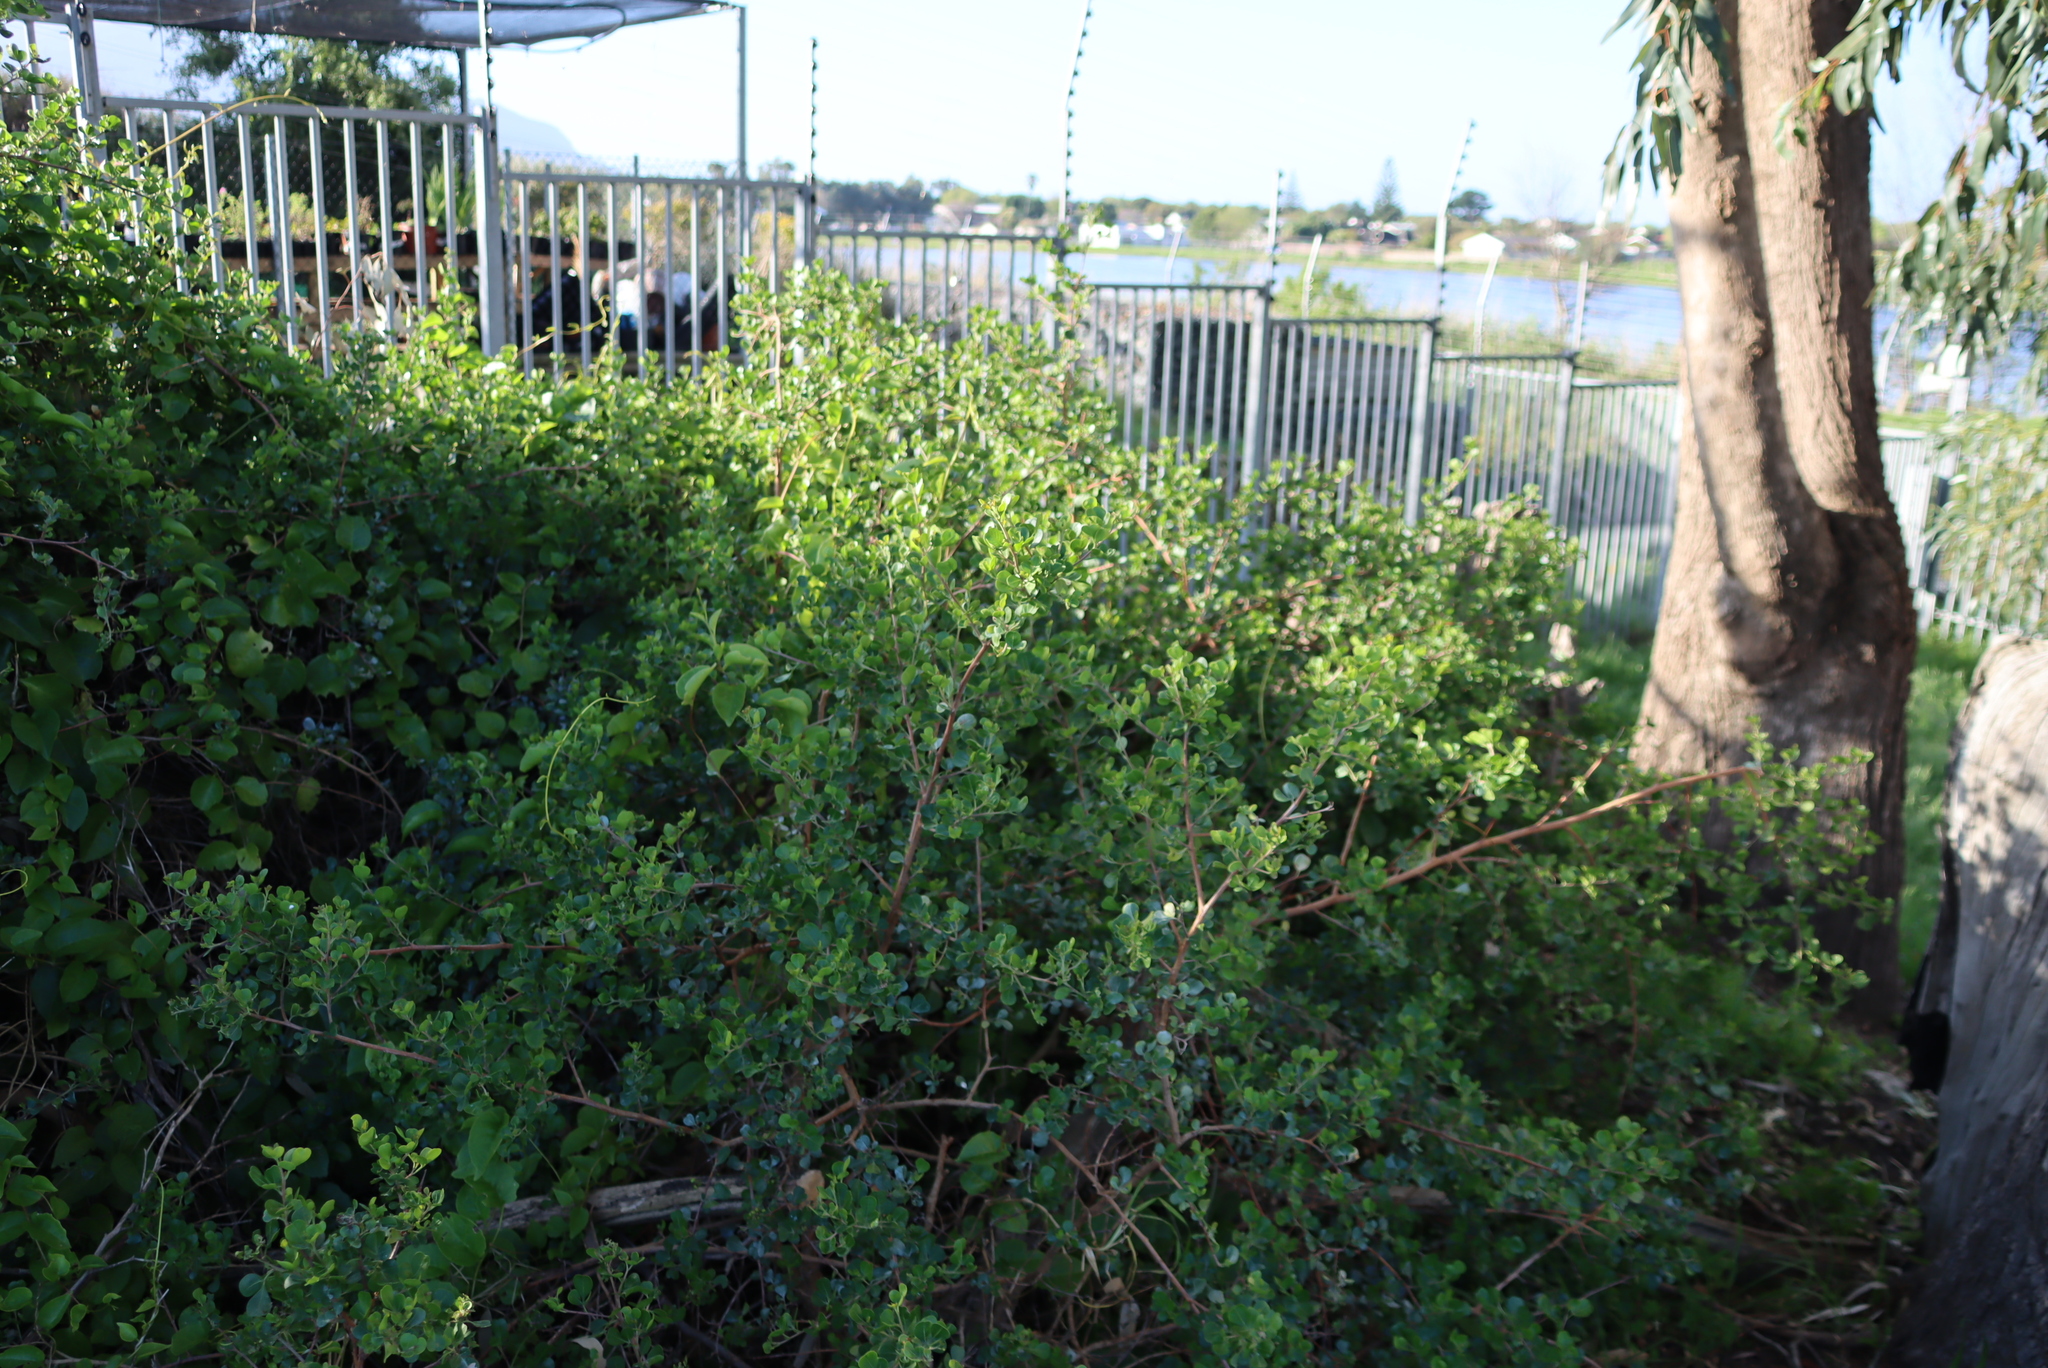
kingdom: Plantae
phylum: Tracheophyta
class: Magnoliopsida
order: Caryophyllales
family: Basellaceae
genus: Anredera
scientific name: Anredera cordifolia
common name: Heartleaf madeiravine
